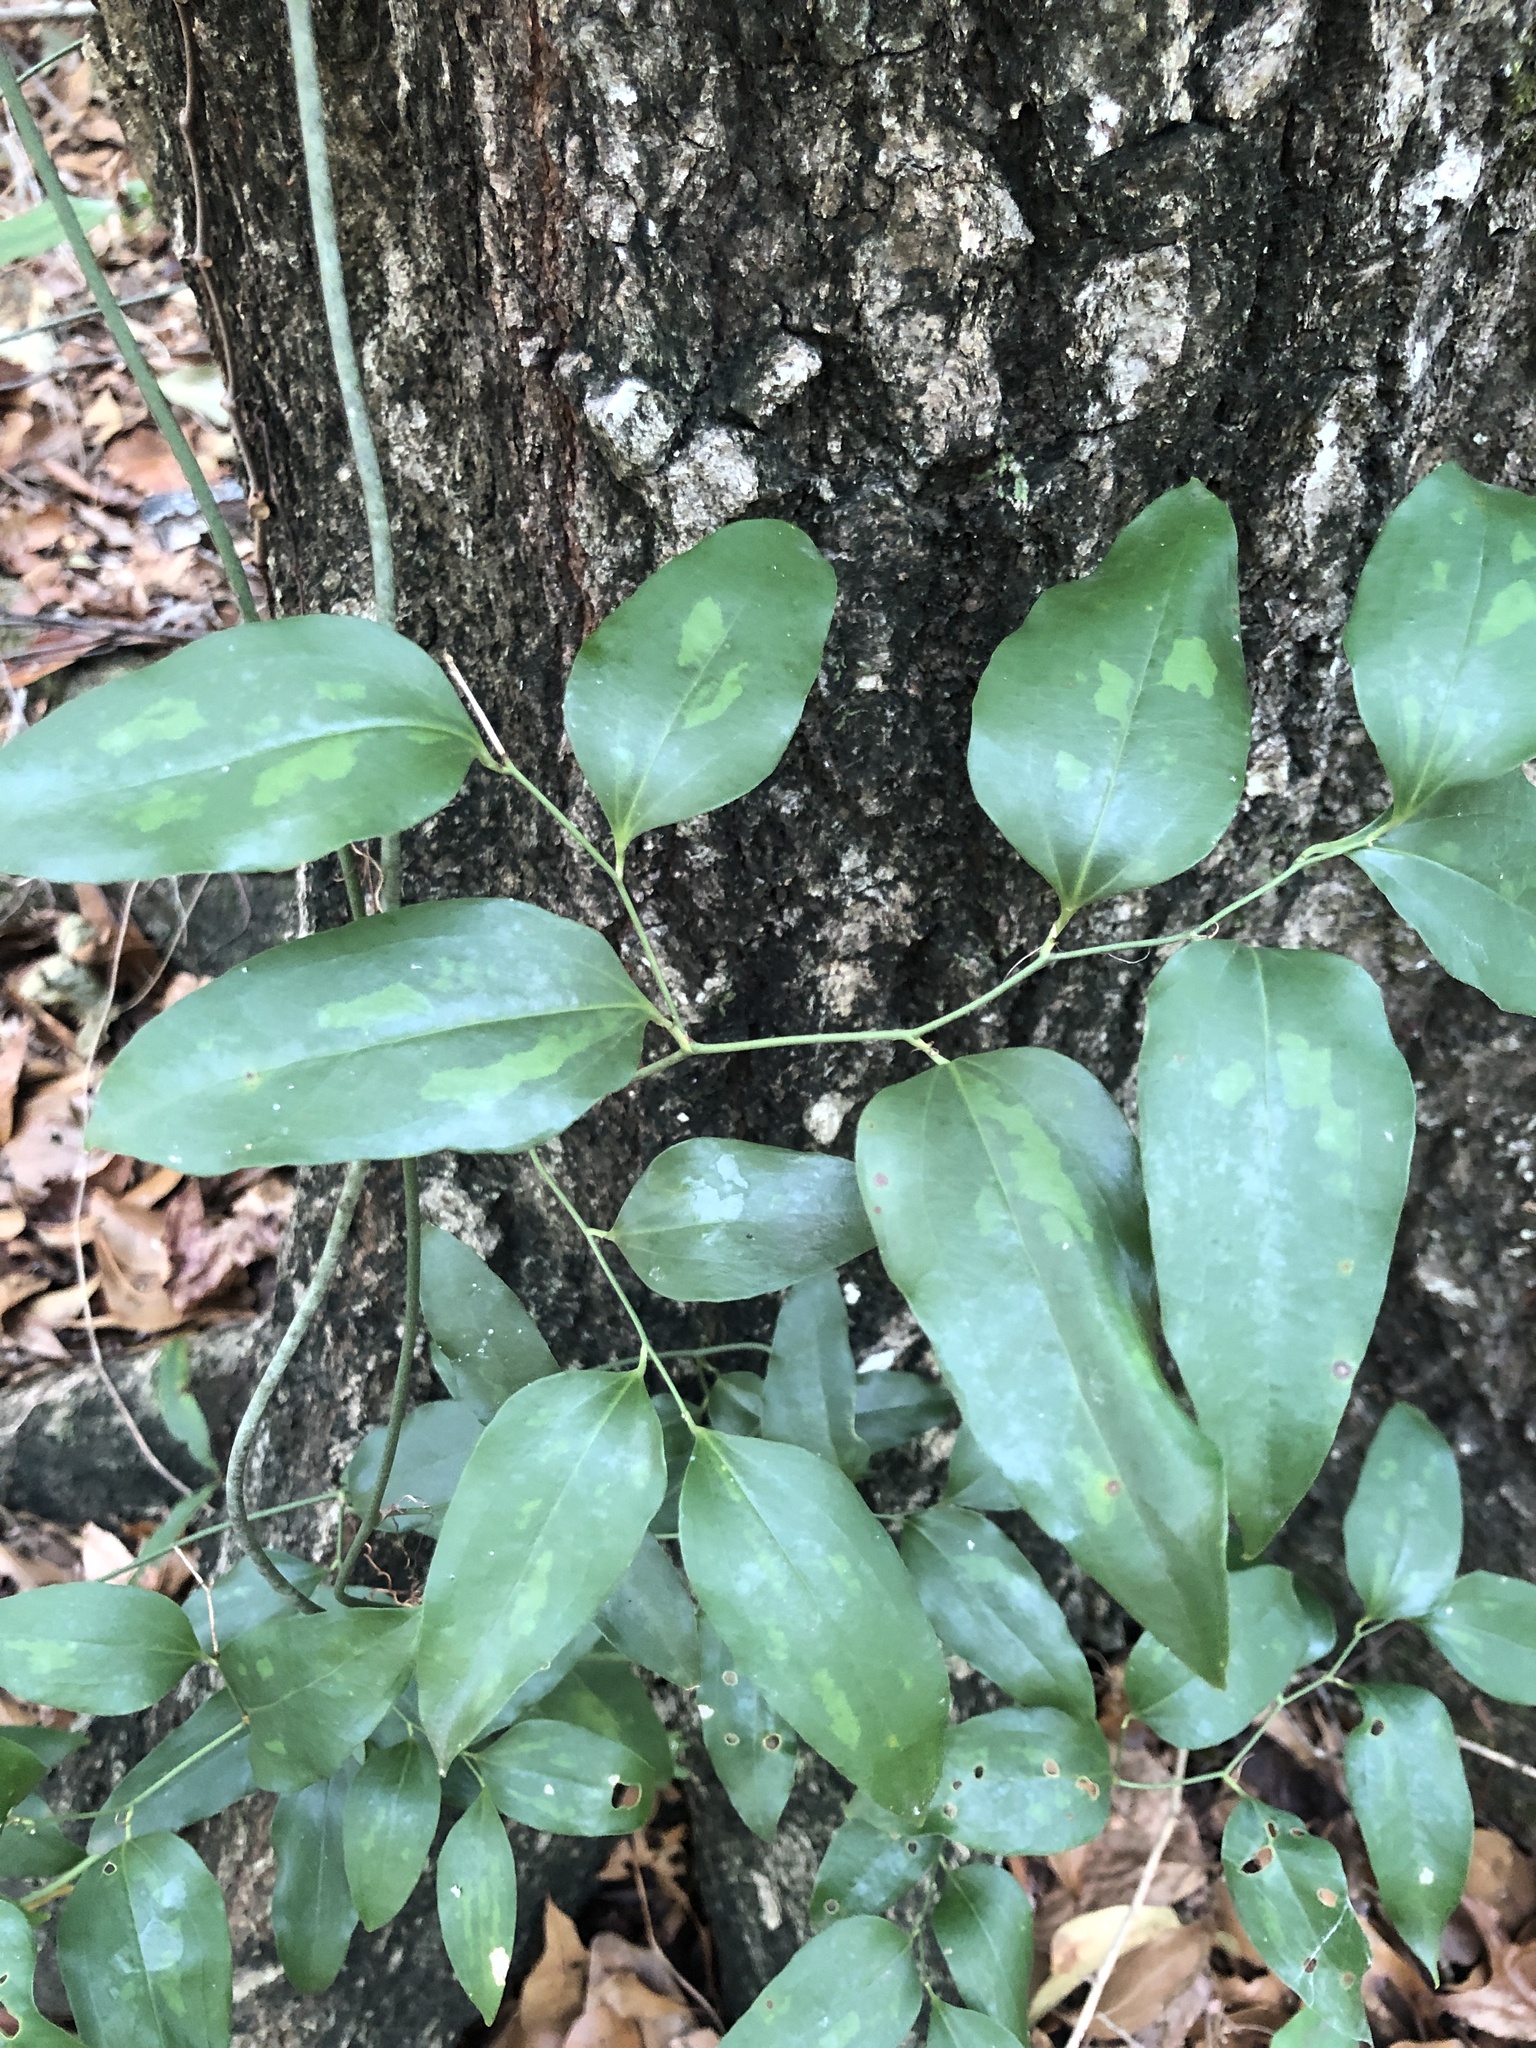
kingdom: Plantae
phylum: Tracheophyta
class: Liliopsida
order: Liliales
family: Smilacaceae
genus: Smilax
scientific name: Smilax maritima
